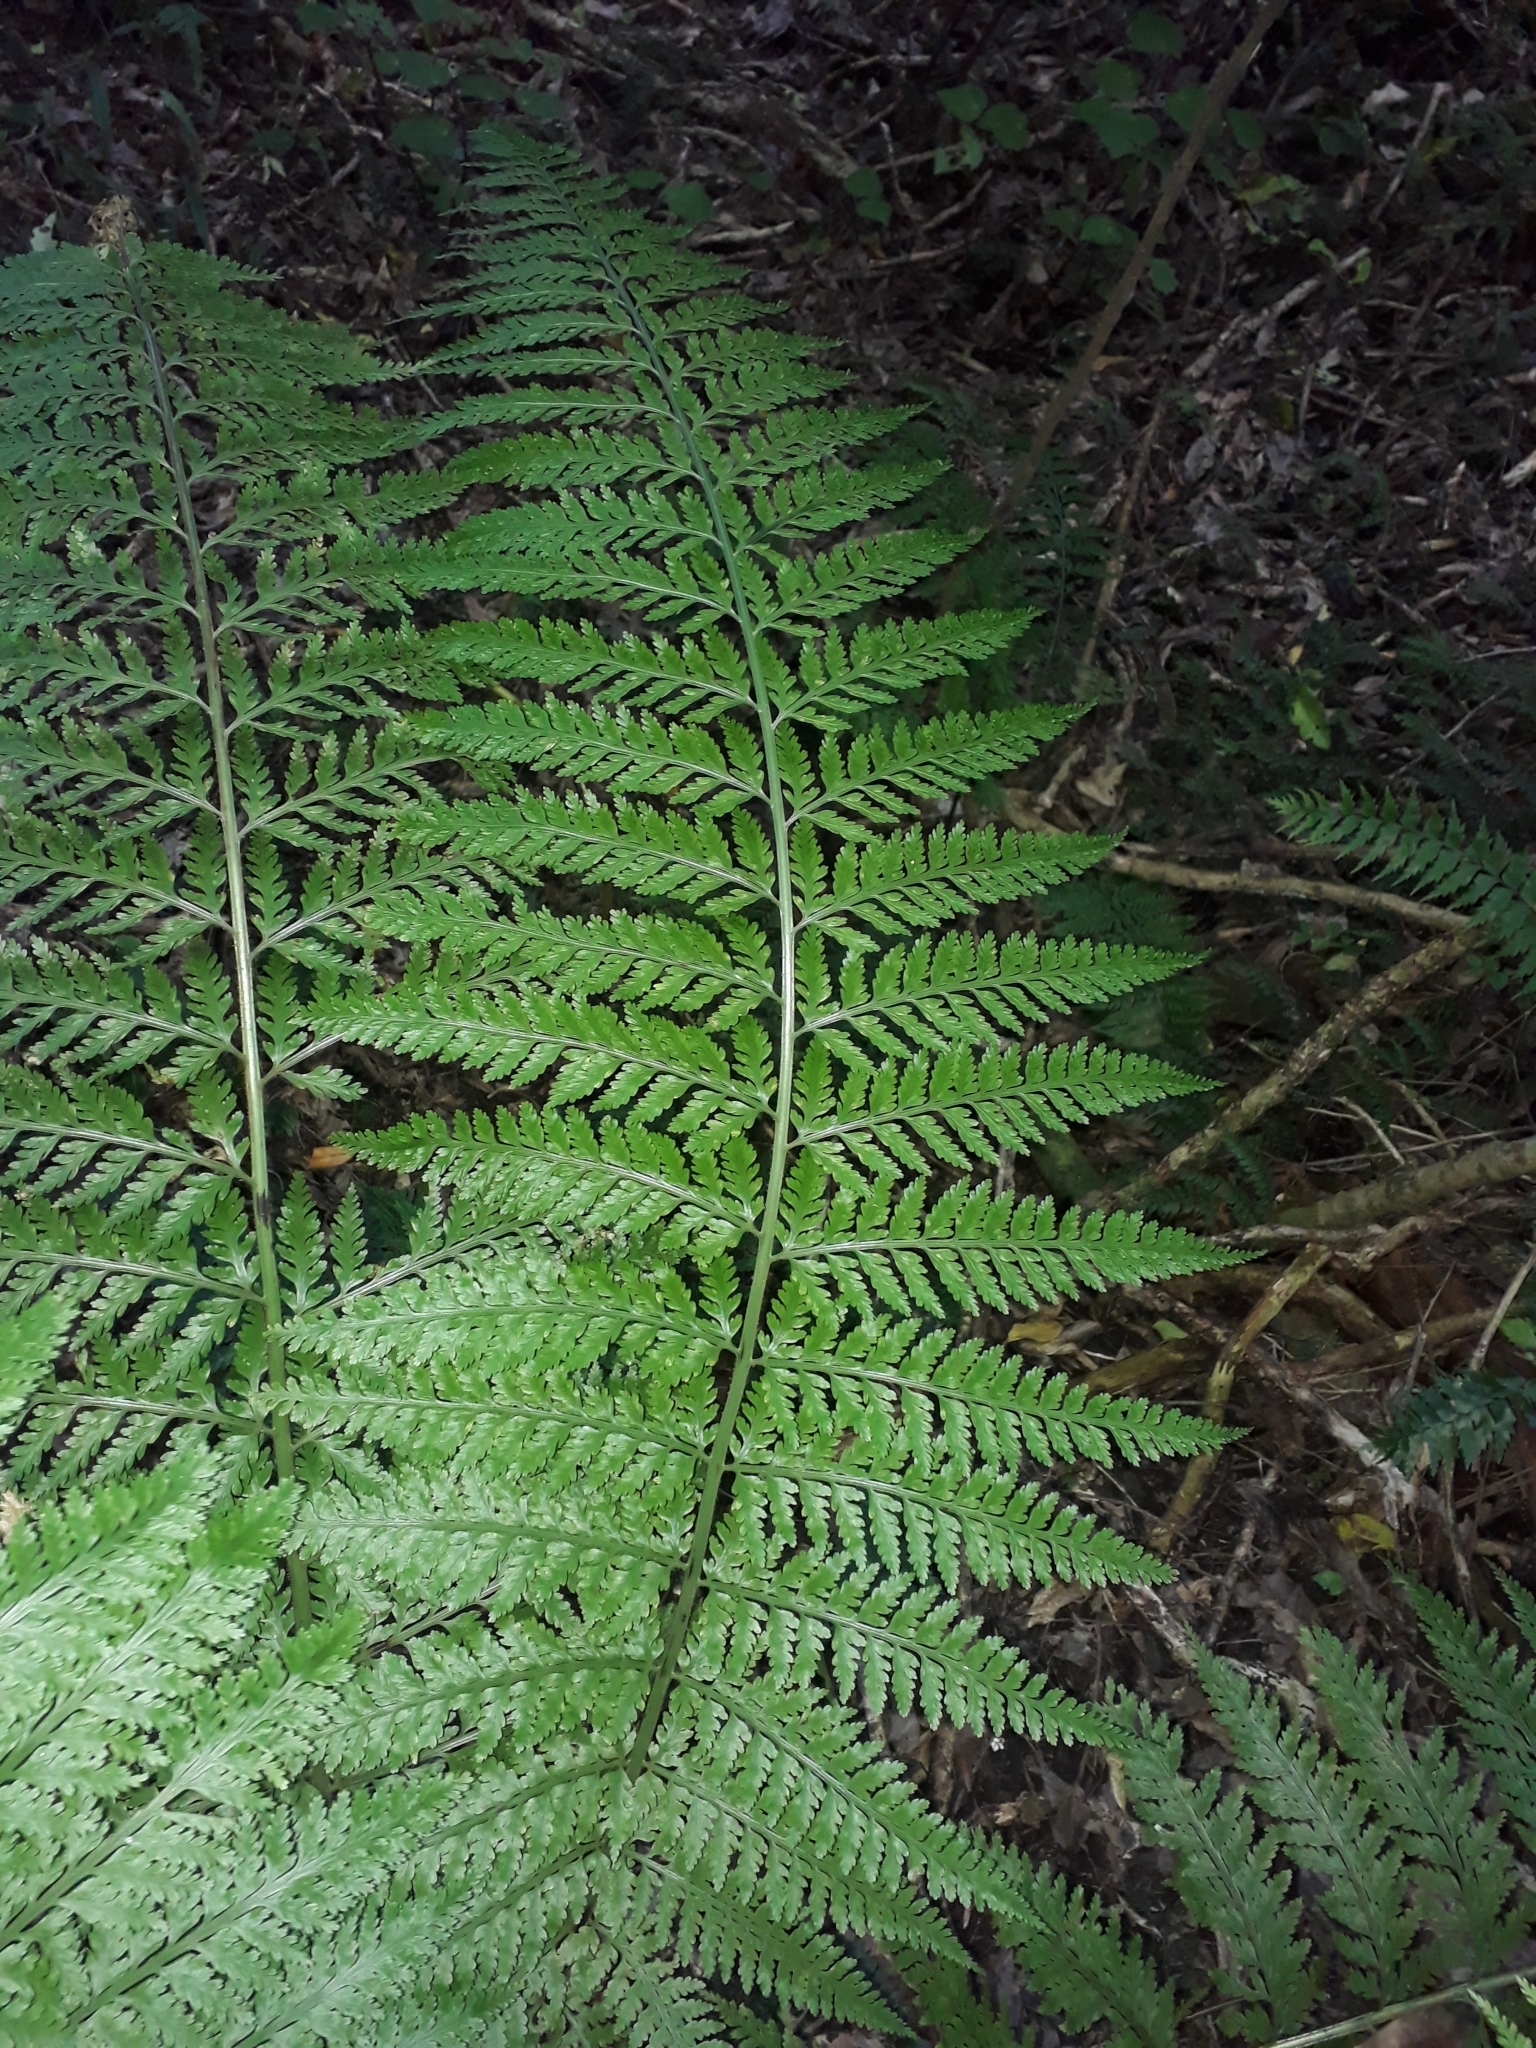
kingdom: Plantae
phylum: Tracheophyta
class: Polypodiopsida
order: Polypodiales
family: Aspleniaceae
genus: Asplenium
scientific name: Asplenium bulbiferum
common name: Mother fern
